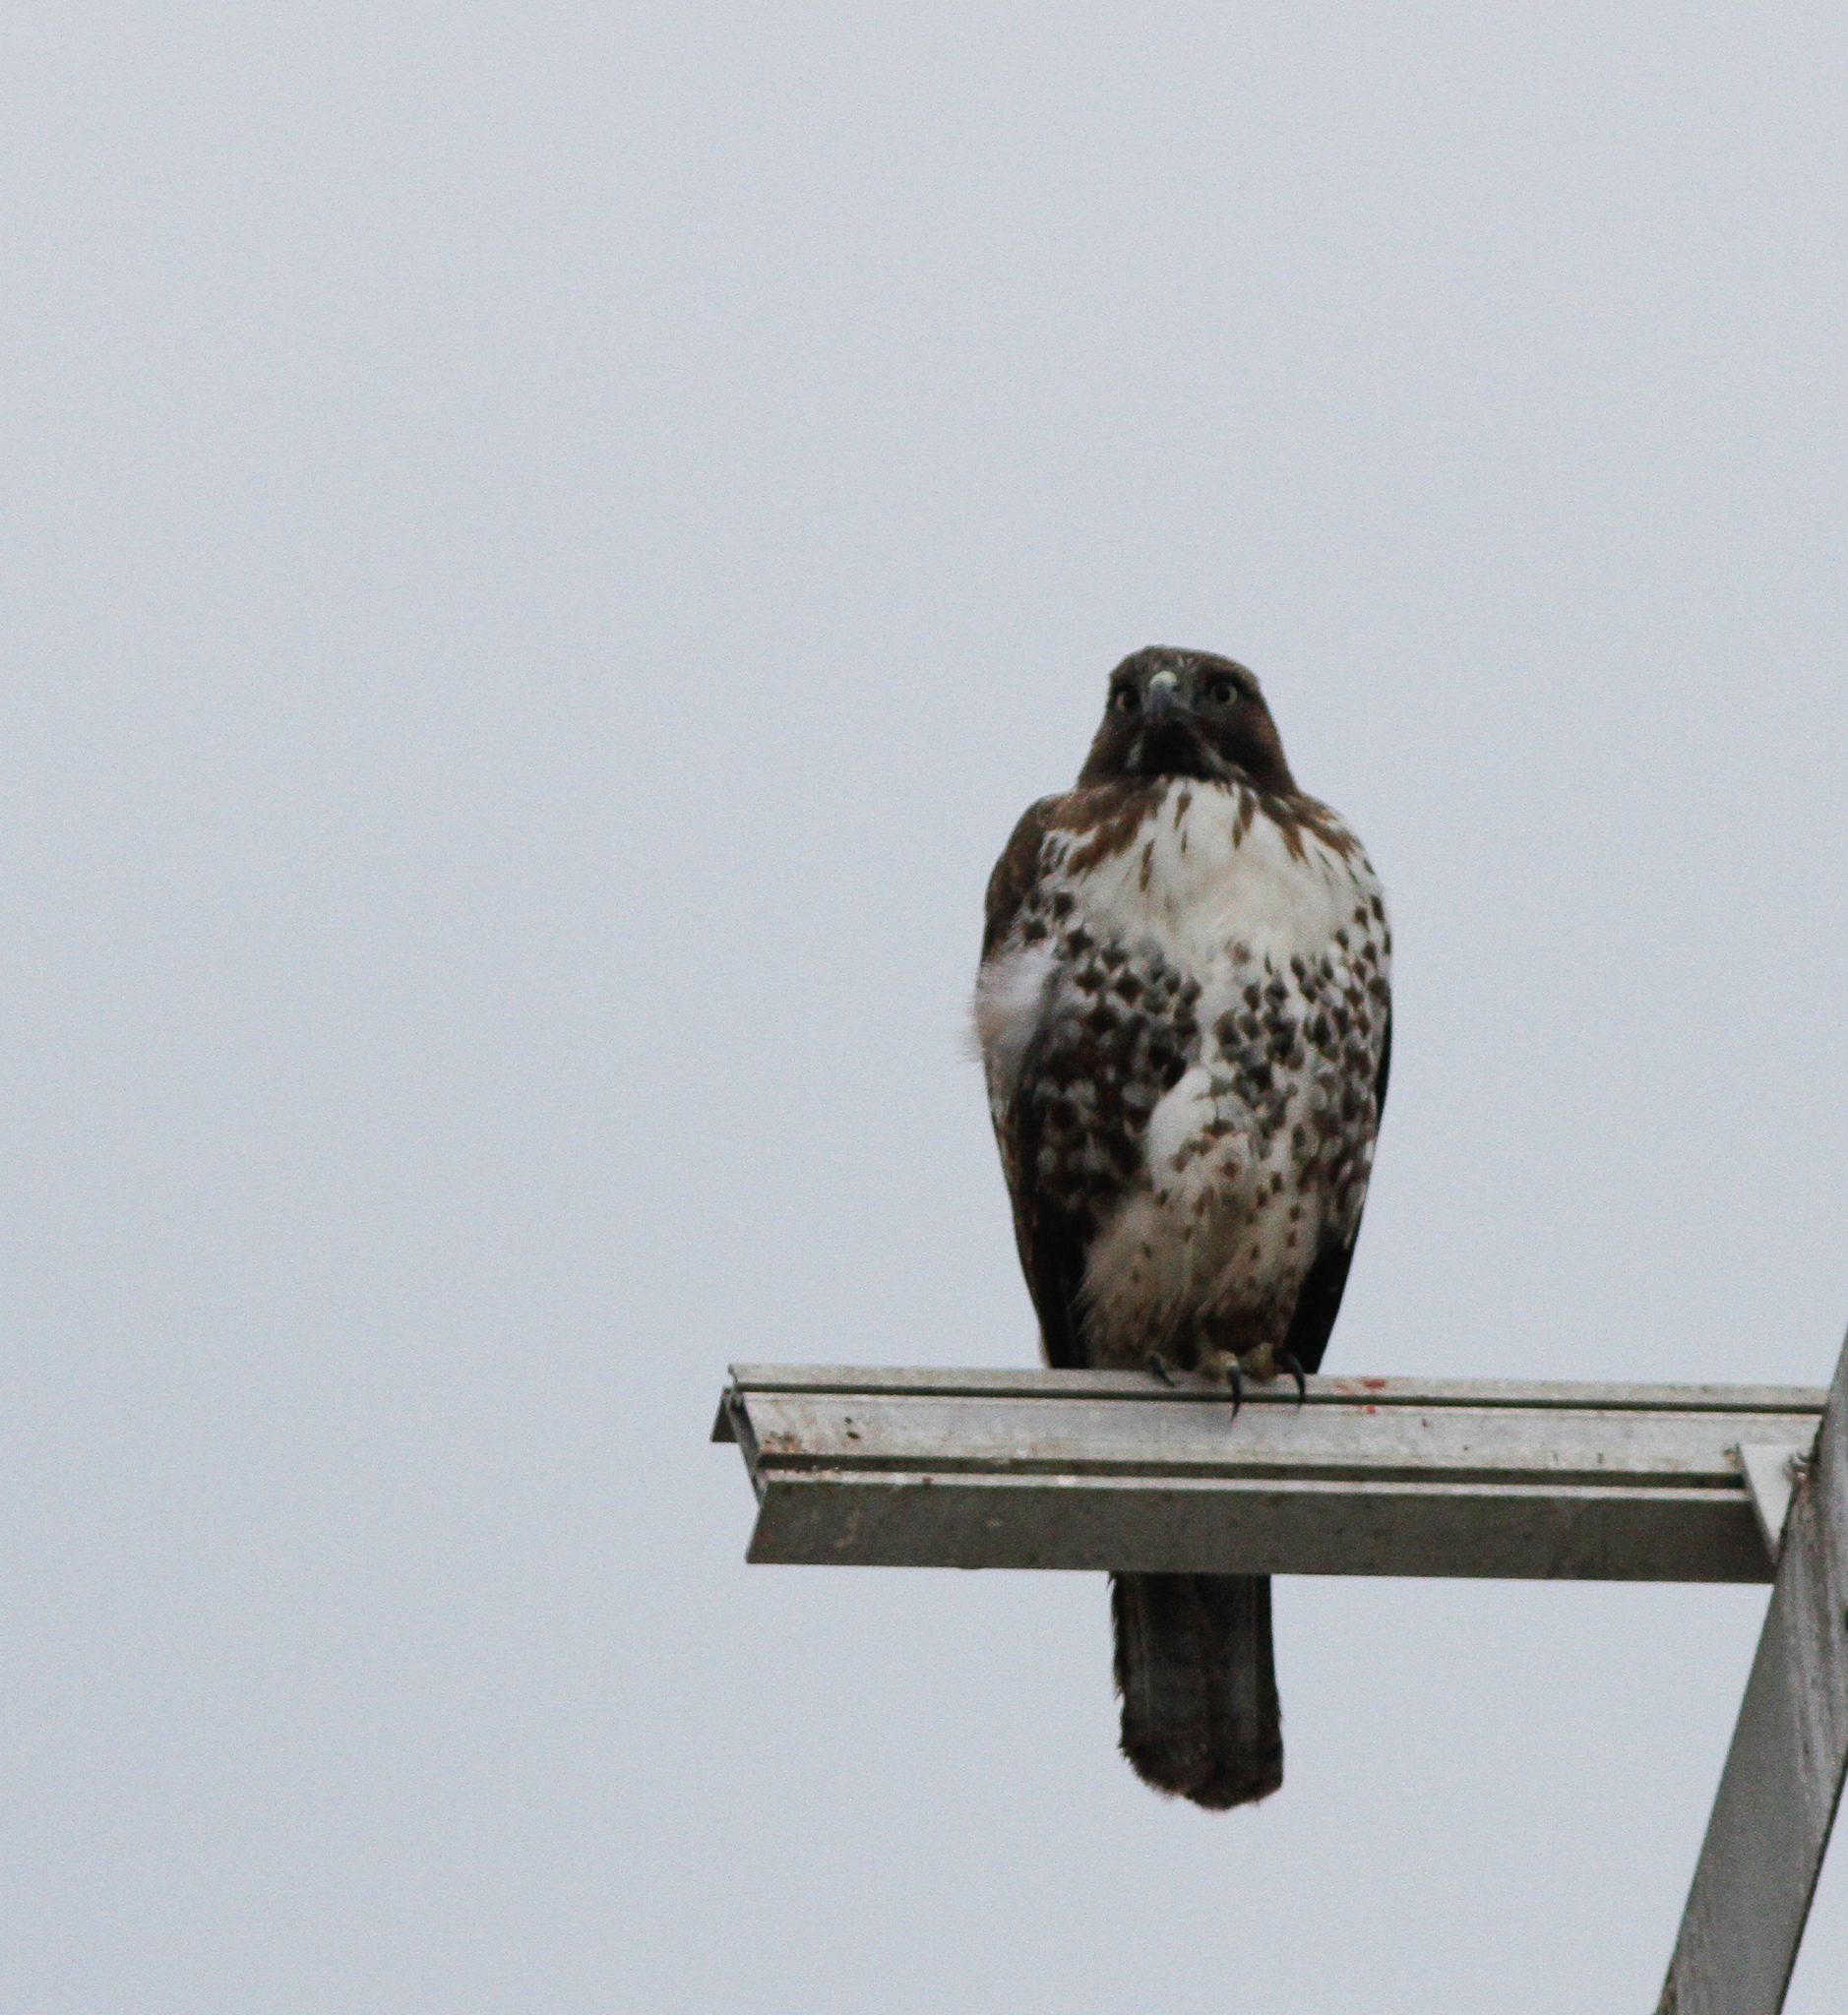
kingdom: Animalia
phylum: Chordata
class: Aves
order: Accipitriformes
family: Accipitridae
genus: Buteo
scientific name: Buteo jamaicensis
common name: Red-tailed hawk
